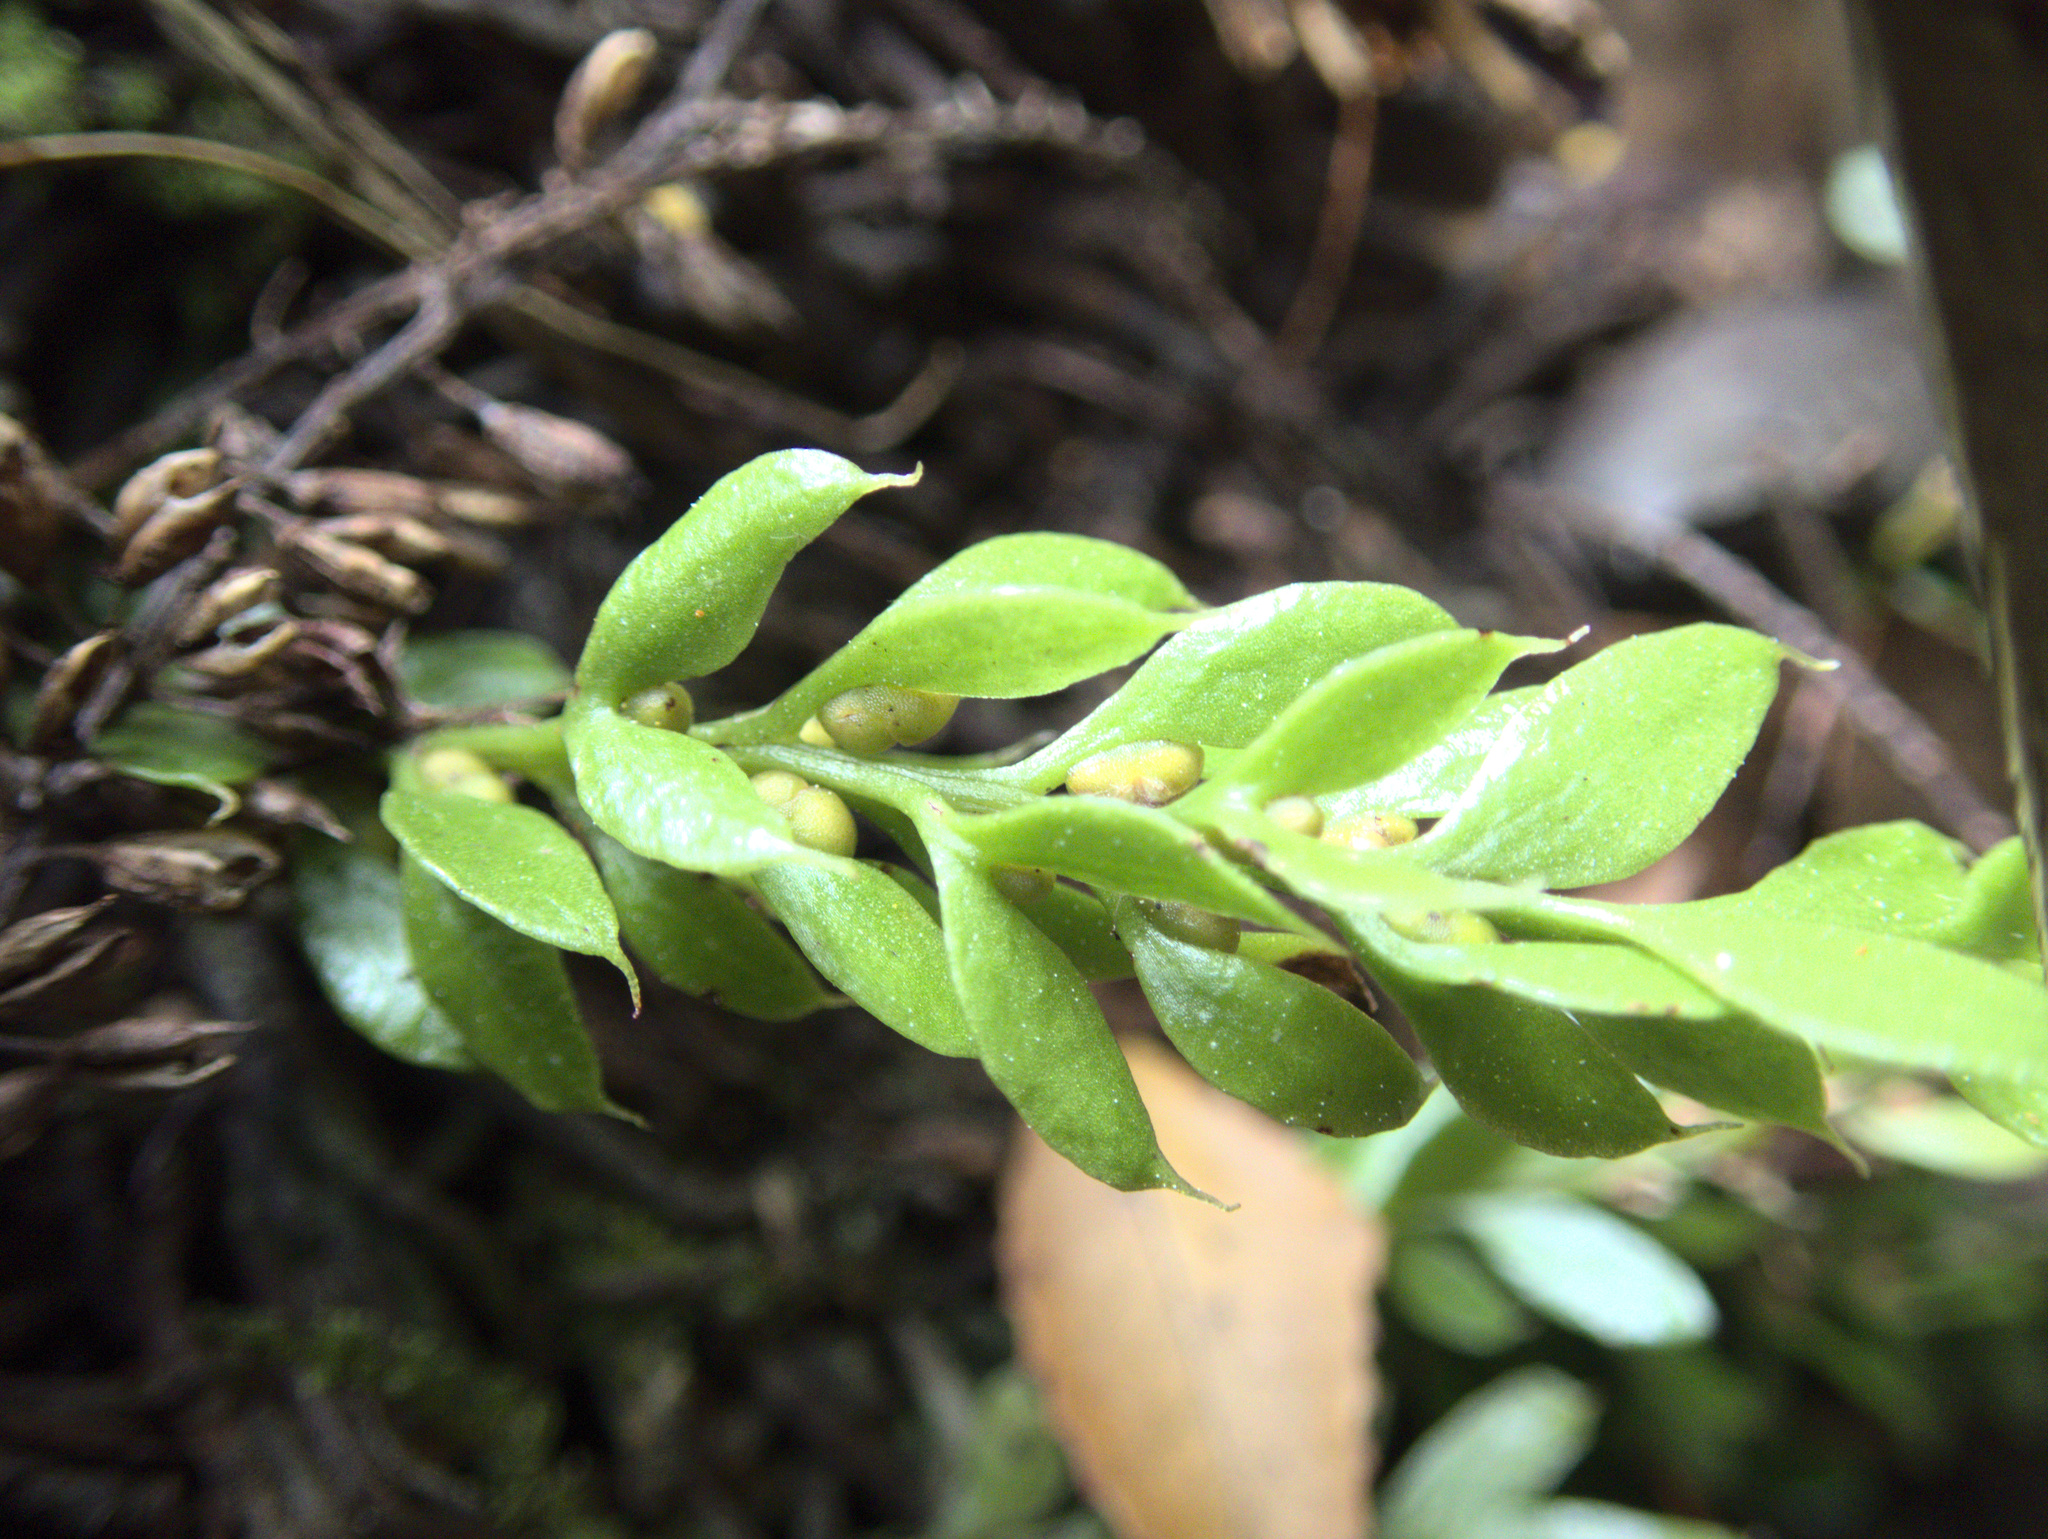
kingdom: Plantae
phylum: Tracheophyta
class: Polypodiopsida
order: Psilotales
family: Psilotaceae
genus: Tmesipteris
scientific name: Tmesipteris lanceolata
